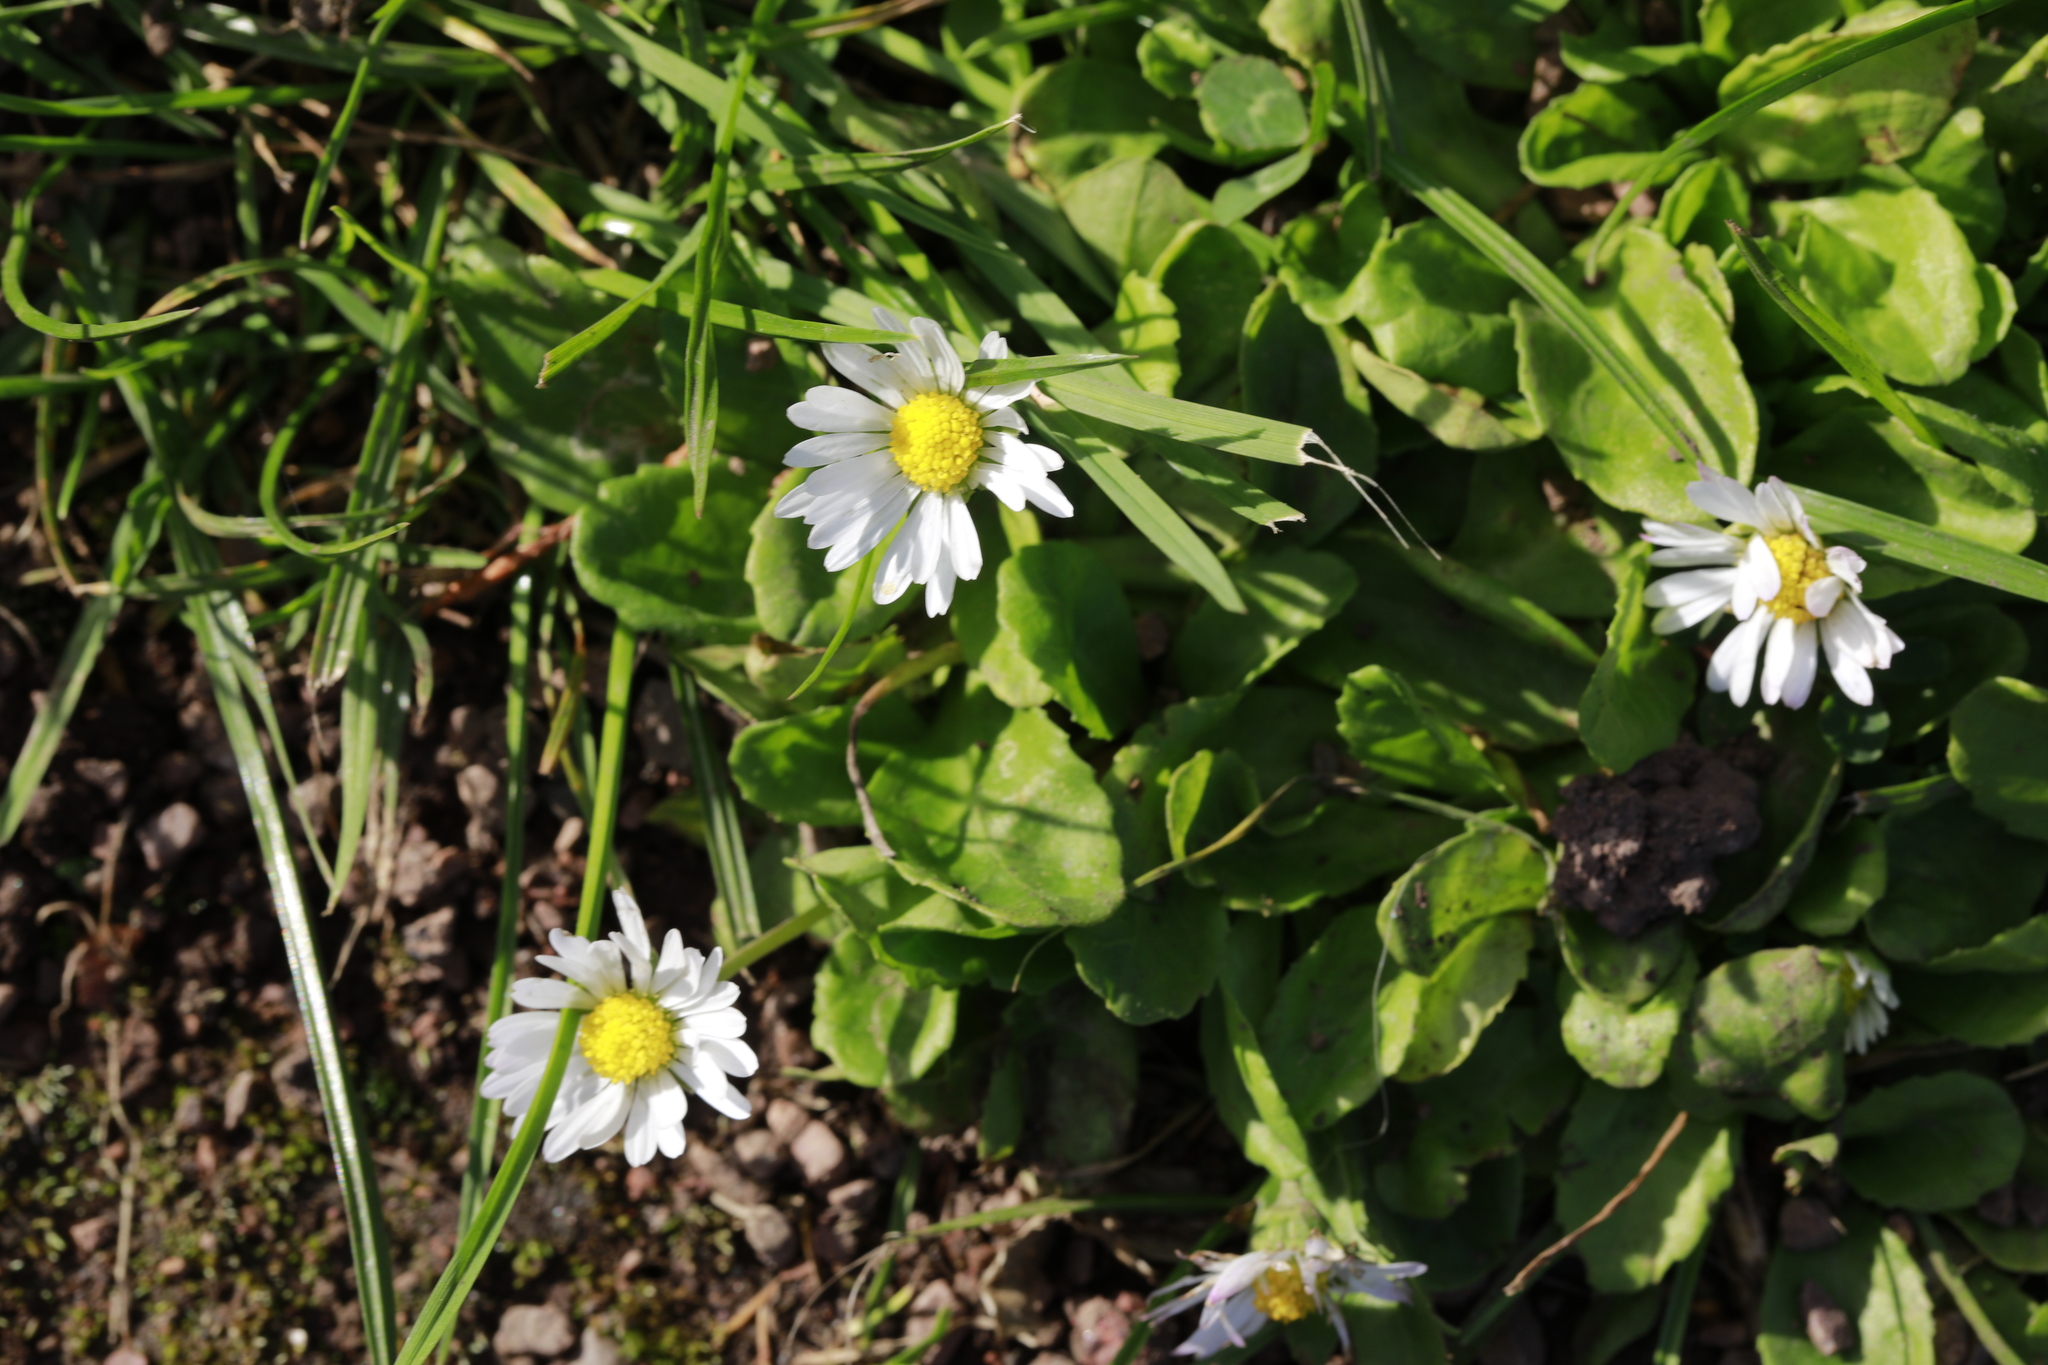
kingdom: Plantae
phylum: Tracheophyta
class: Magnoliopsida
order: Asterales
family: Asteraceae
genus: Bellis
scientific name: Bellis perennis
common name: Lawndaisy
